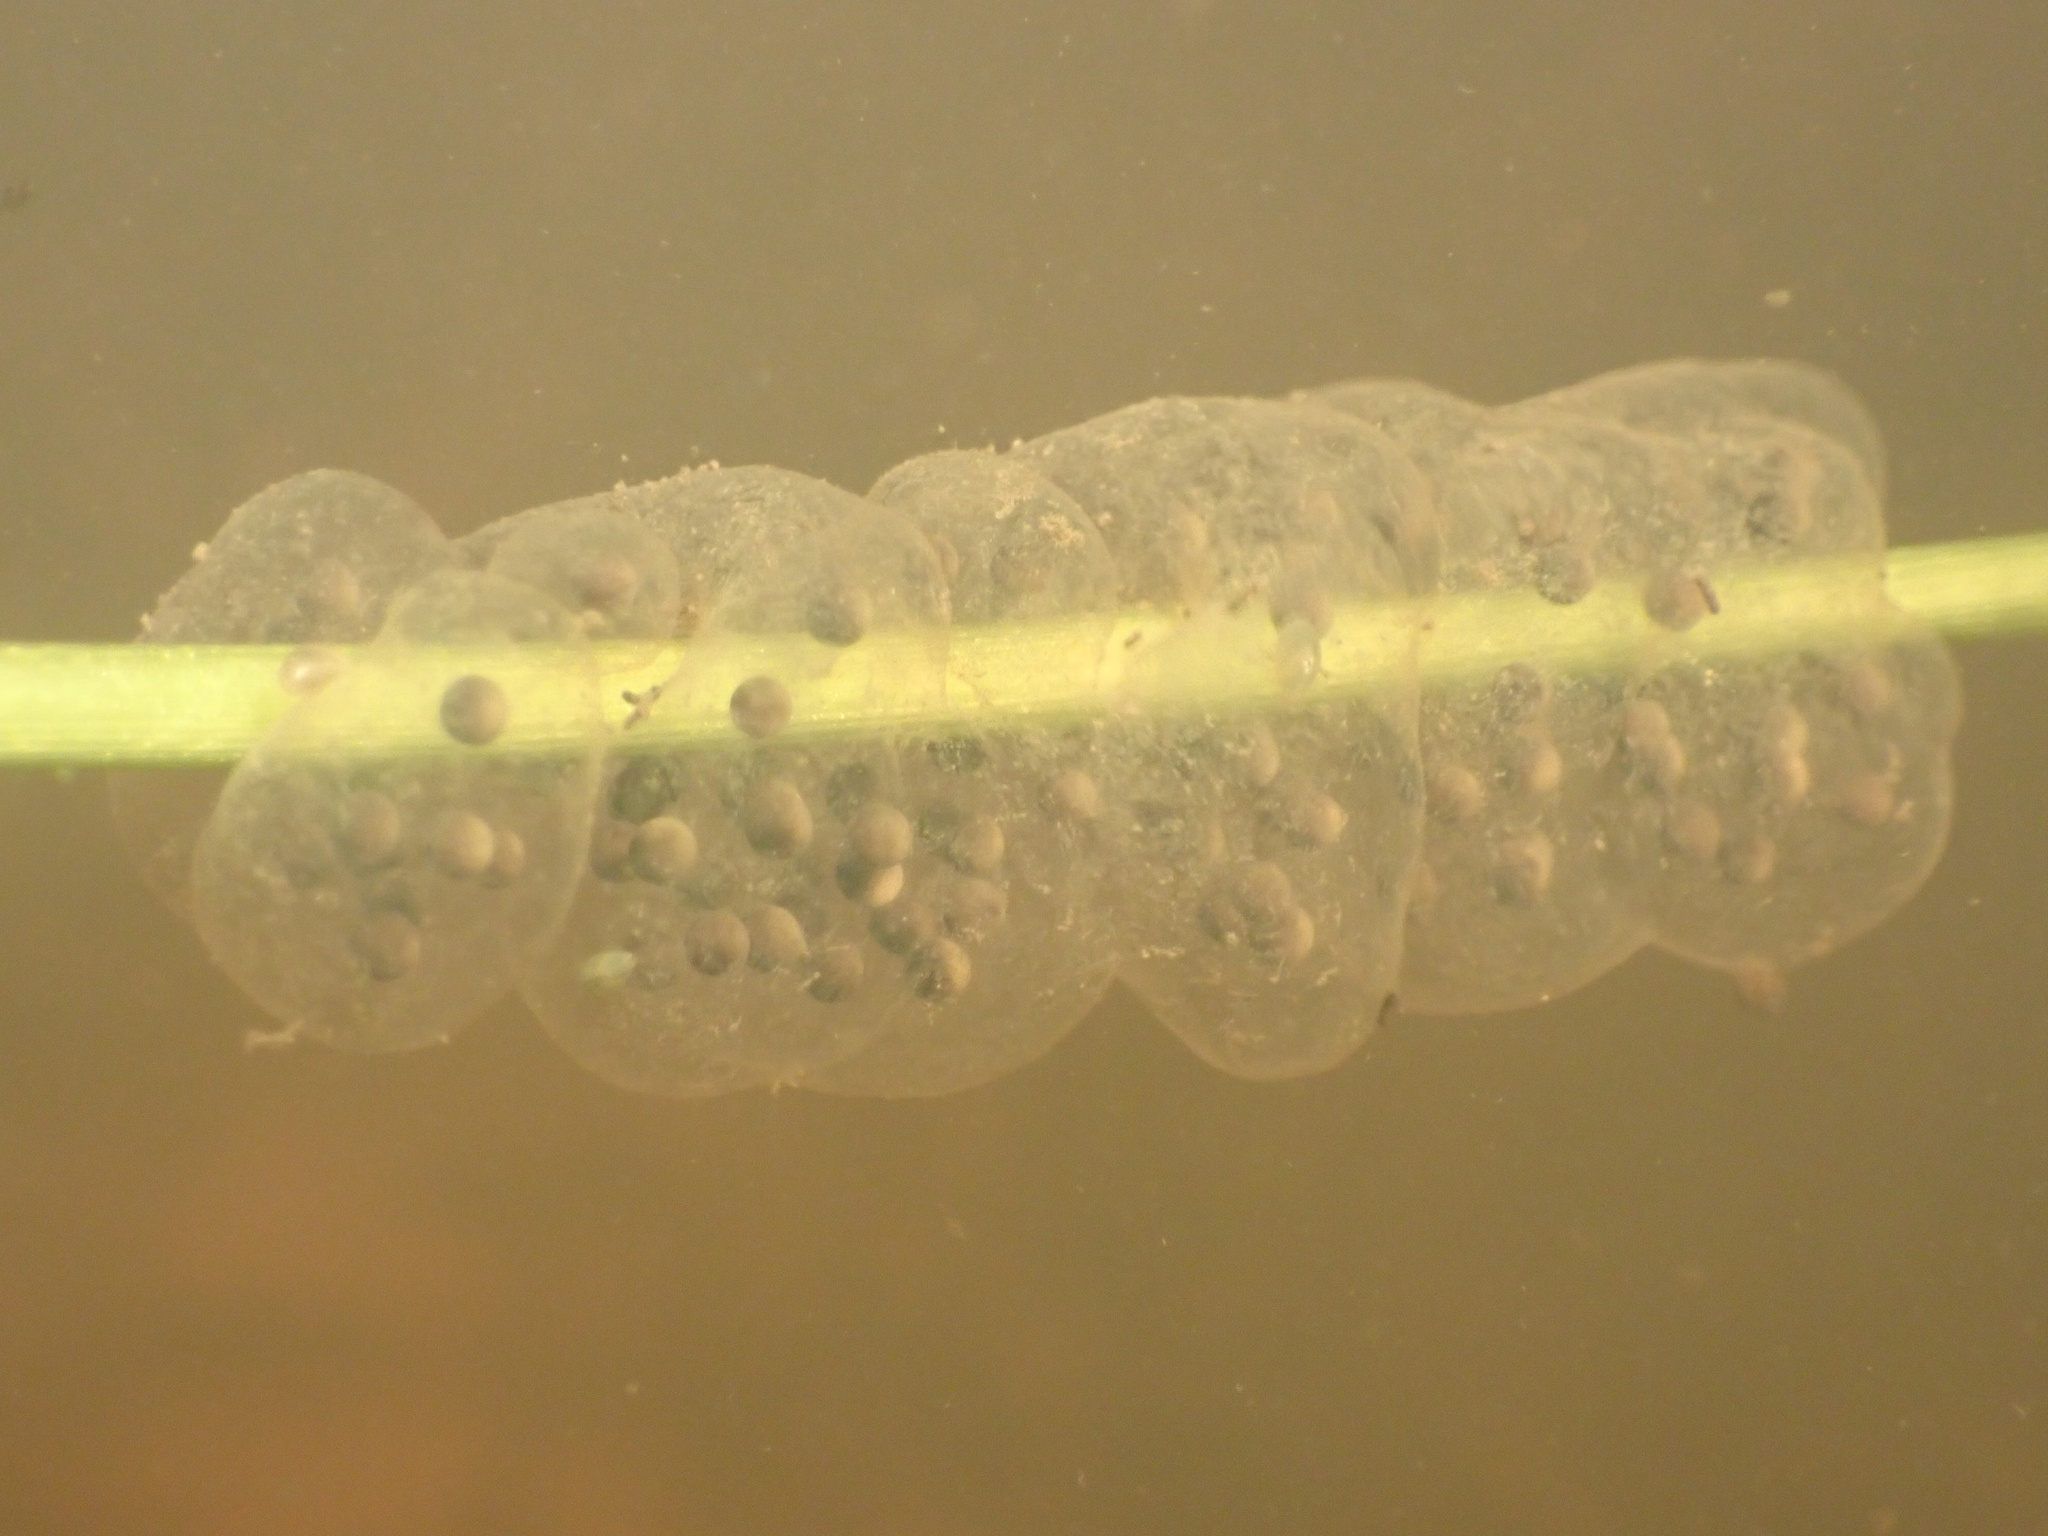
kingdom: Animalia
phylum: Chordata
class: Amphibia
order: Anura
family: Hylidae
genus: Pseudacris
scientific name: Pseudacris regilla
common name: Pacific chorus frog
